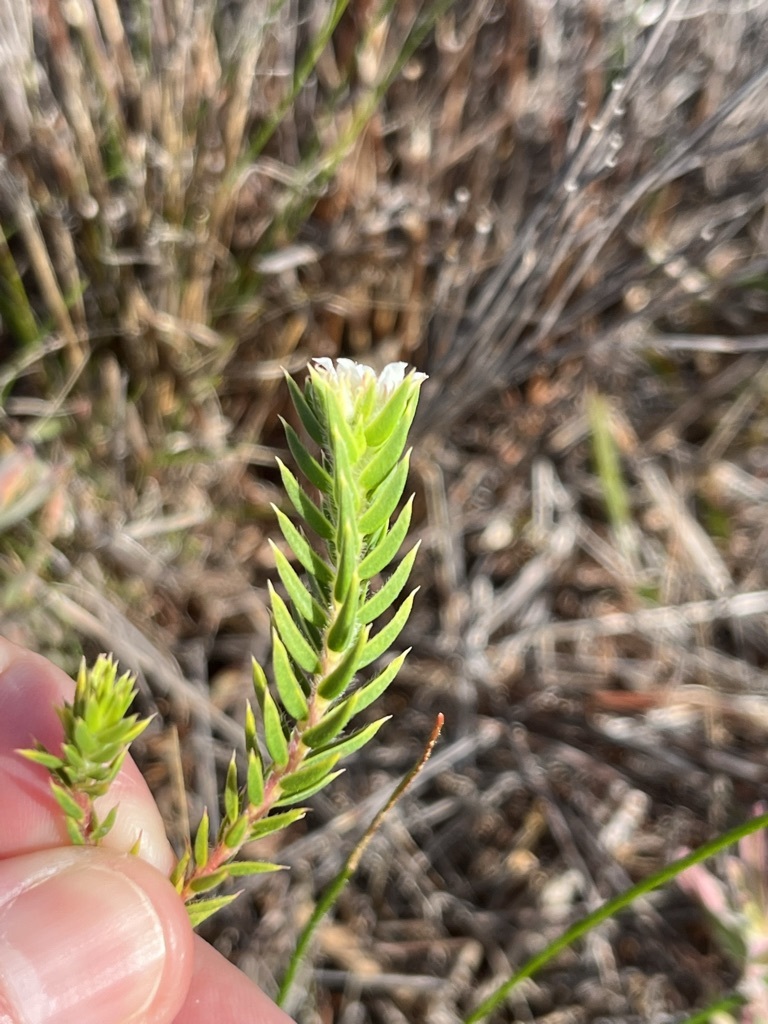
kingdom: Plantae
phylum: Tracheophyta
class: Magnoliopsida
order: Sapindales
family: Rutaceae
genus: Diosma
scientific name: Diosma arenicola
